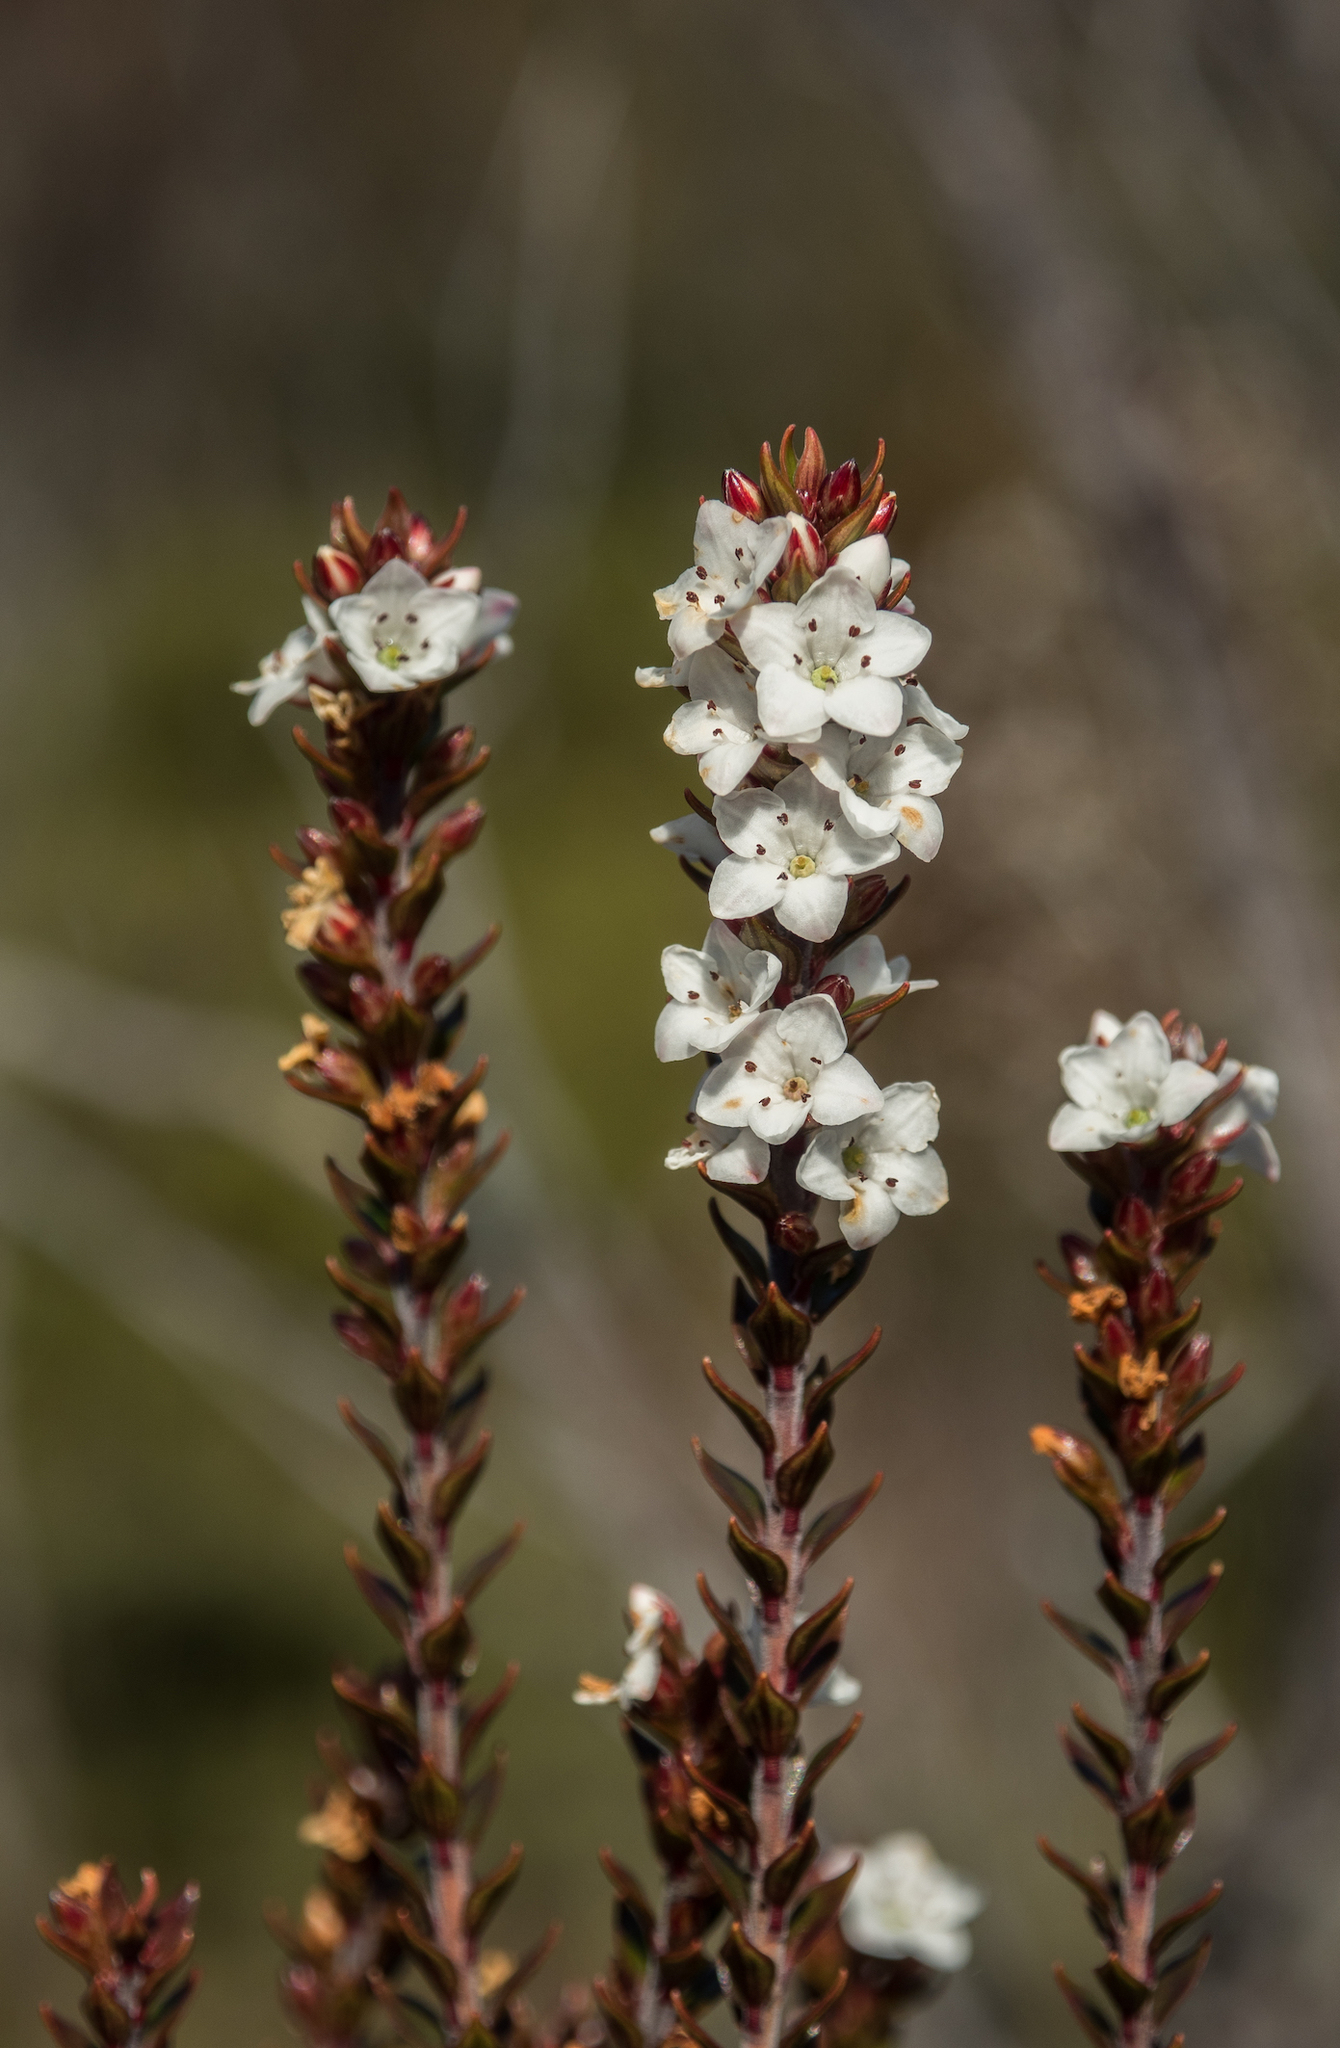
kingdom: Plantae
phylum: Tracheophyta
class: Magnoliopsida
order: Ericales
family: Ericaceae
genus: Epacris
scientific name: Epacris pauciflora
